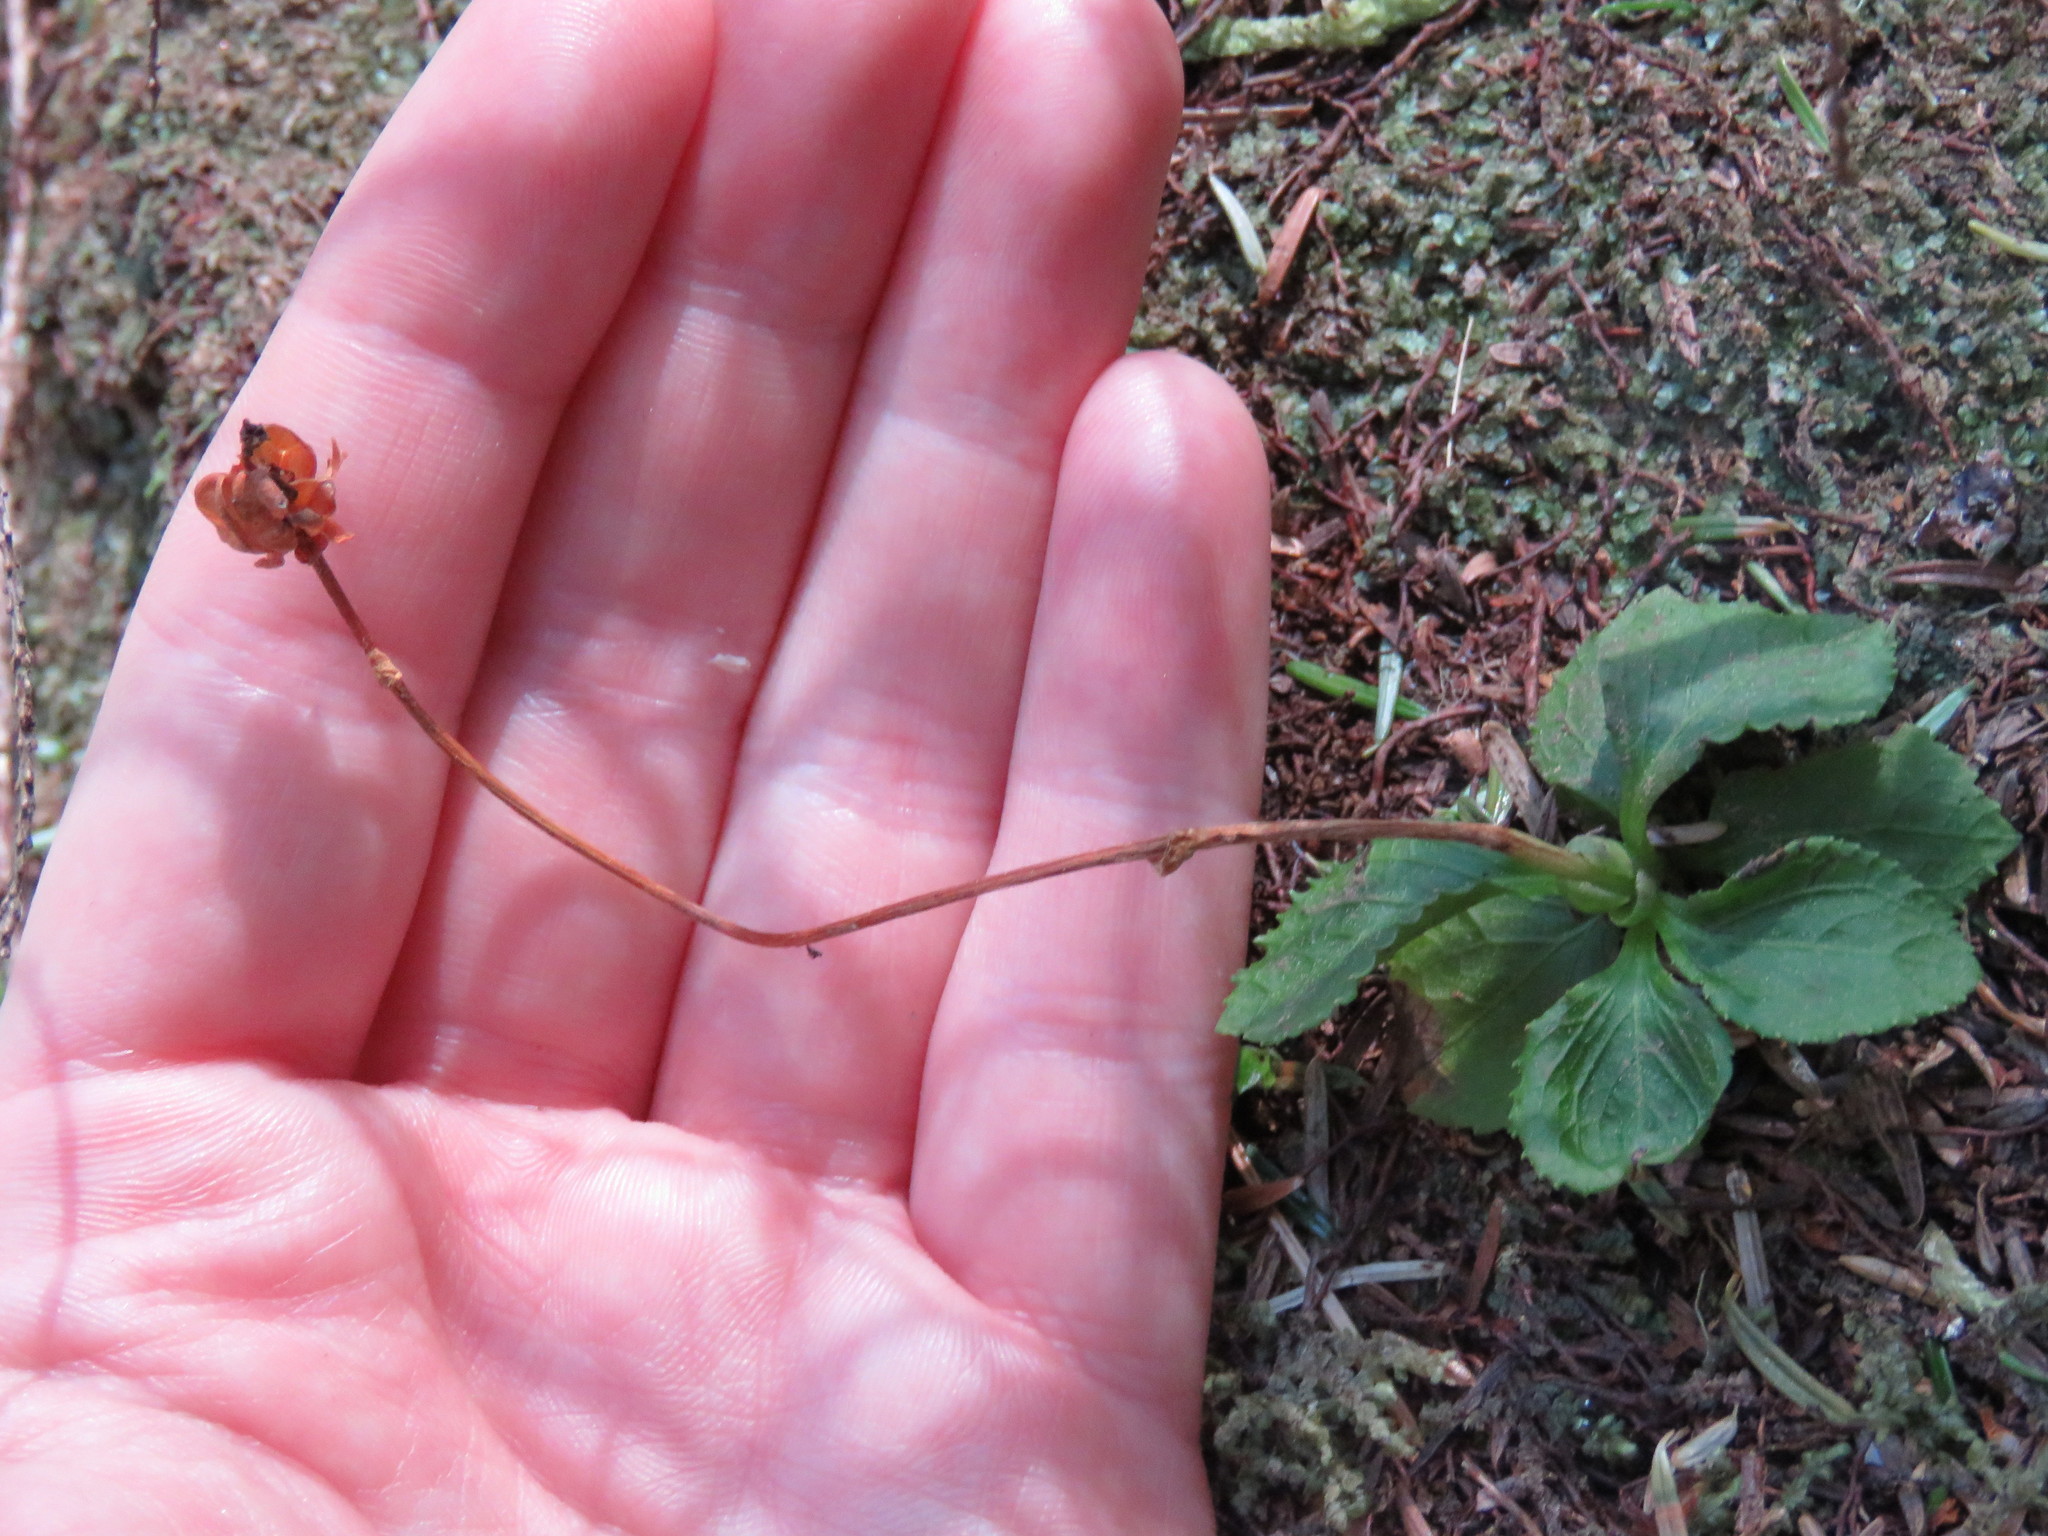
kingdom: Plantae
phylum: Tracheophyta
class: Magnoliopsida
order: Ericales
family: Ericaceae
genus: Moneses
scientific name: Moneses uniflora
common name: One-flowered wintergreen
